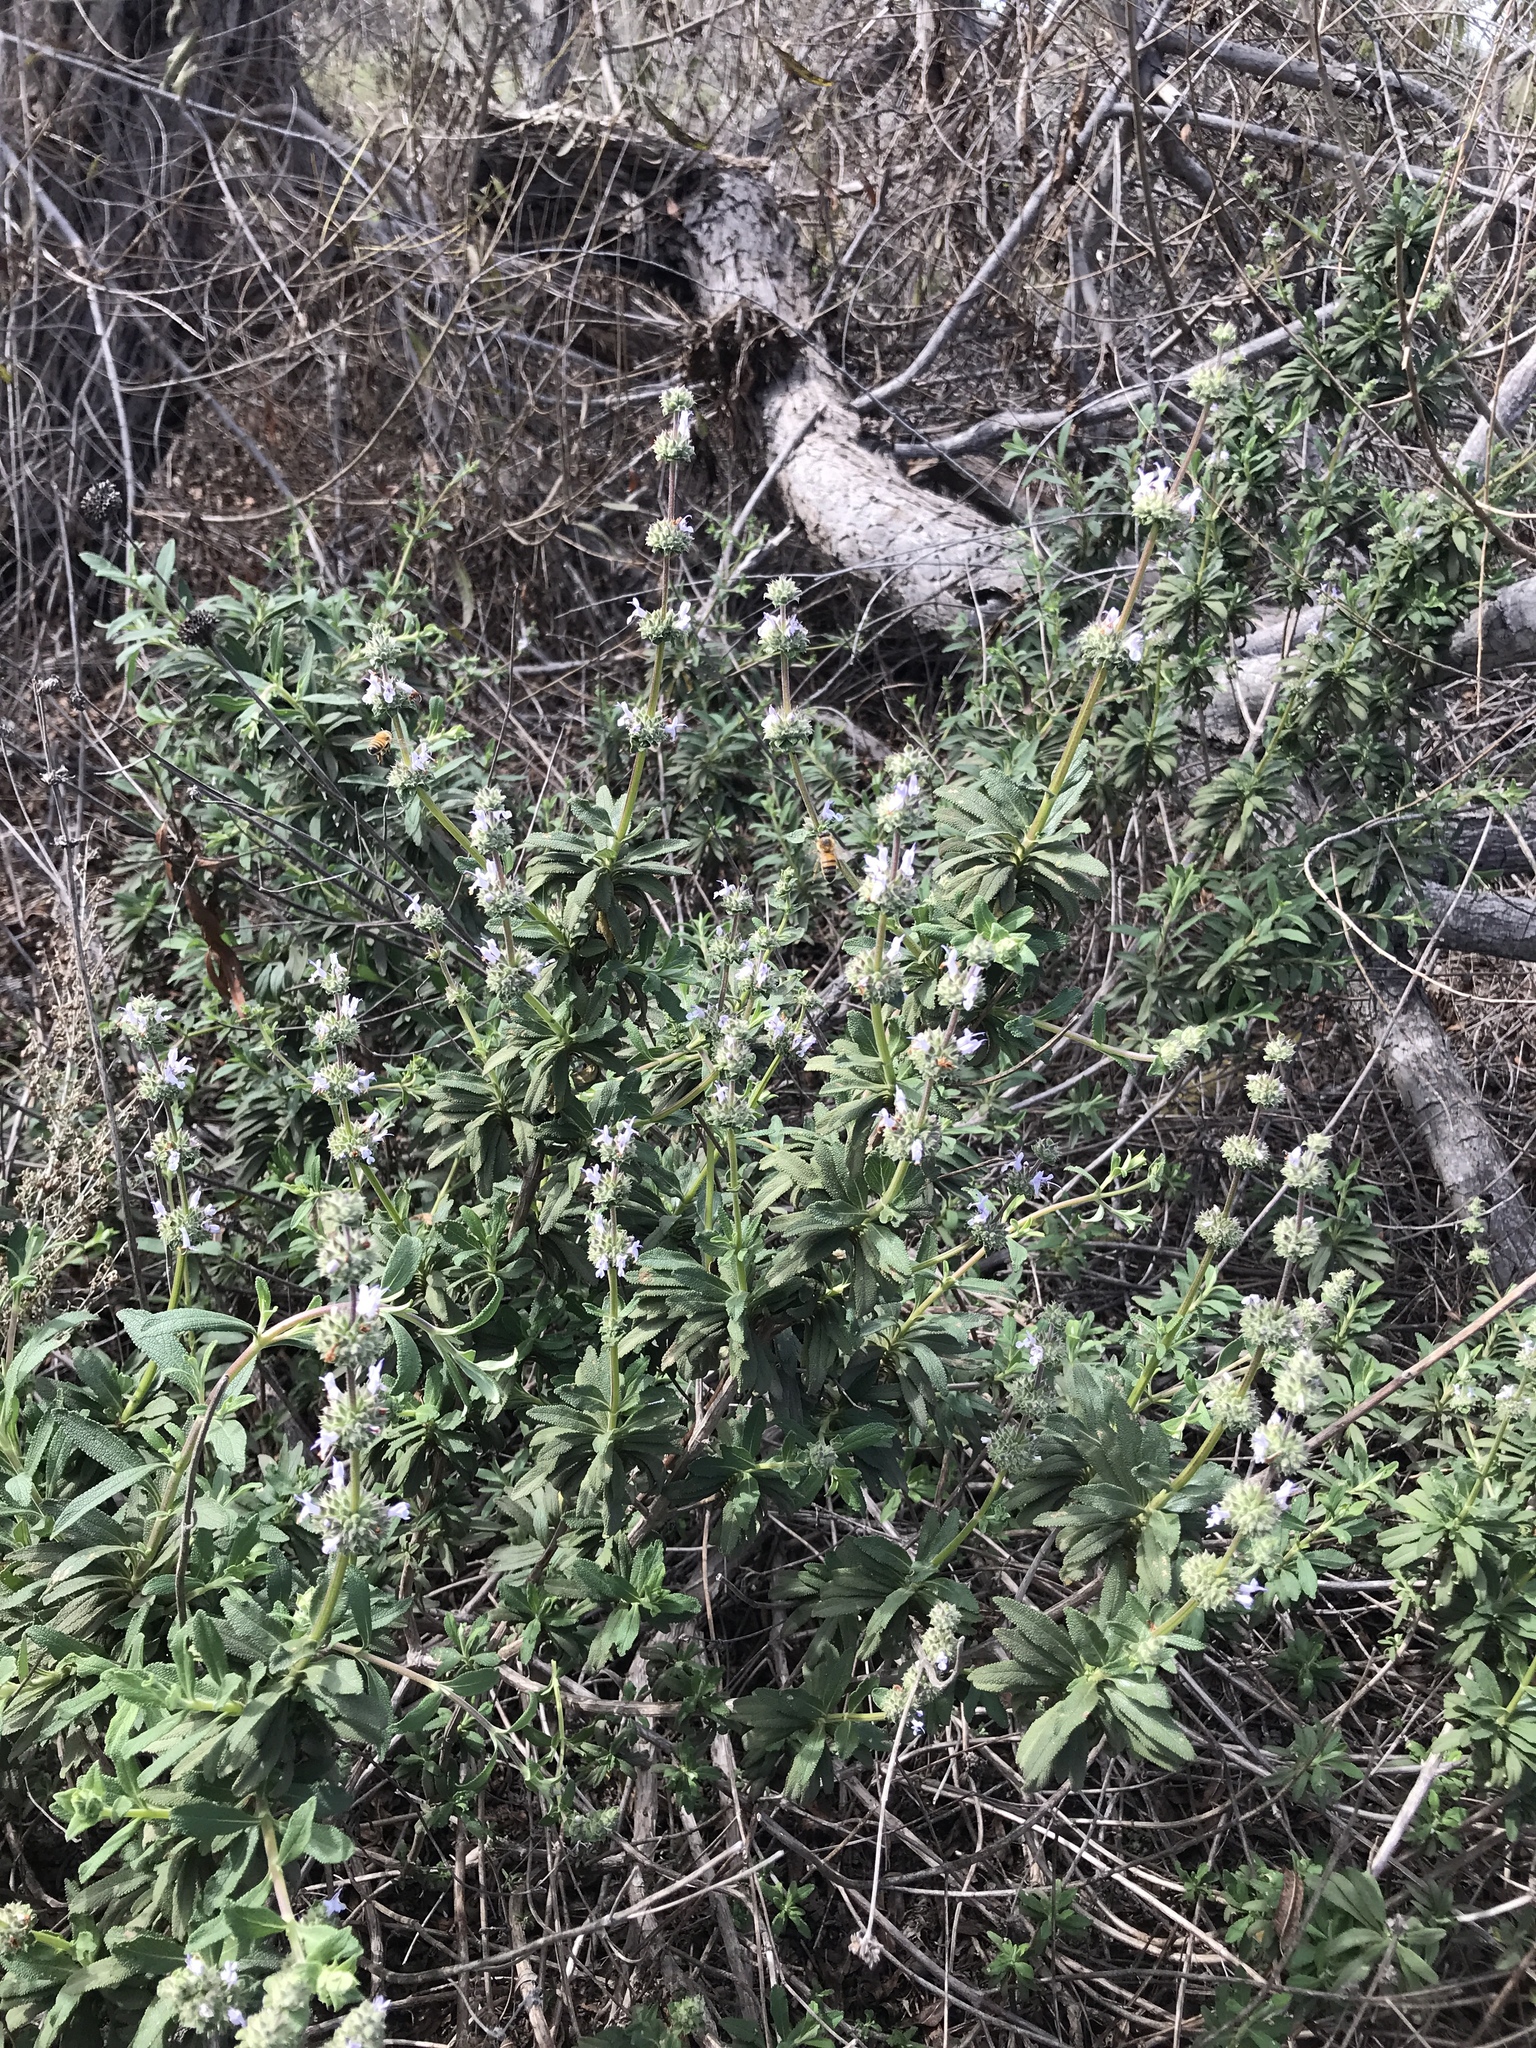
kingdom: Plantae
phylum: Tracheophyta
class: Magnoliopsida
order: Lamiales
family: Lamiaceae
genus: Salvia
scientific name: Salvia mellifera
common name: Black sage
